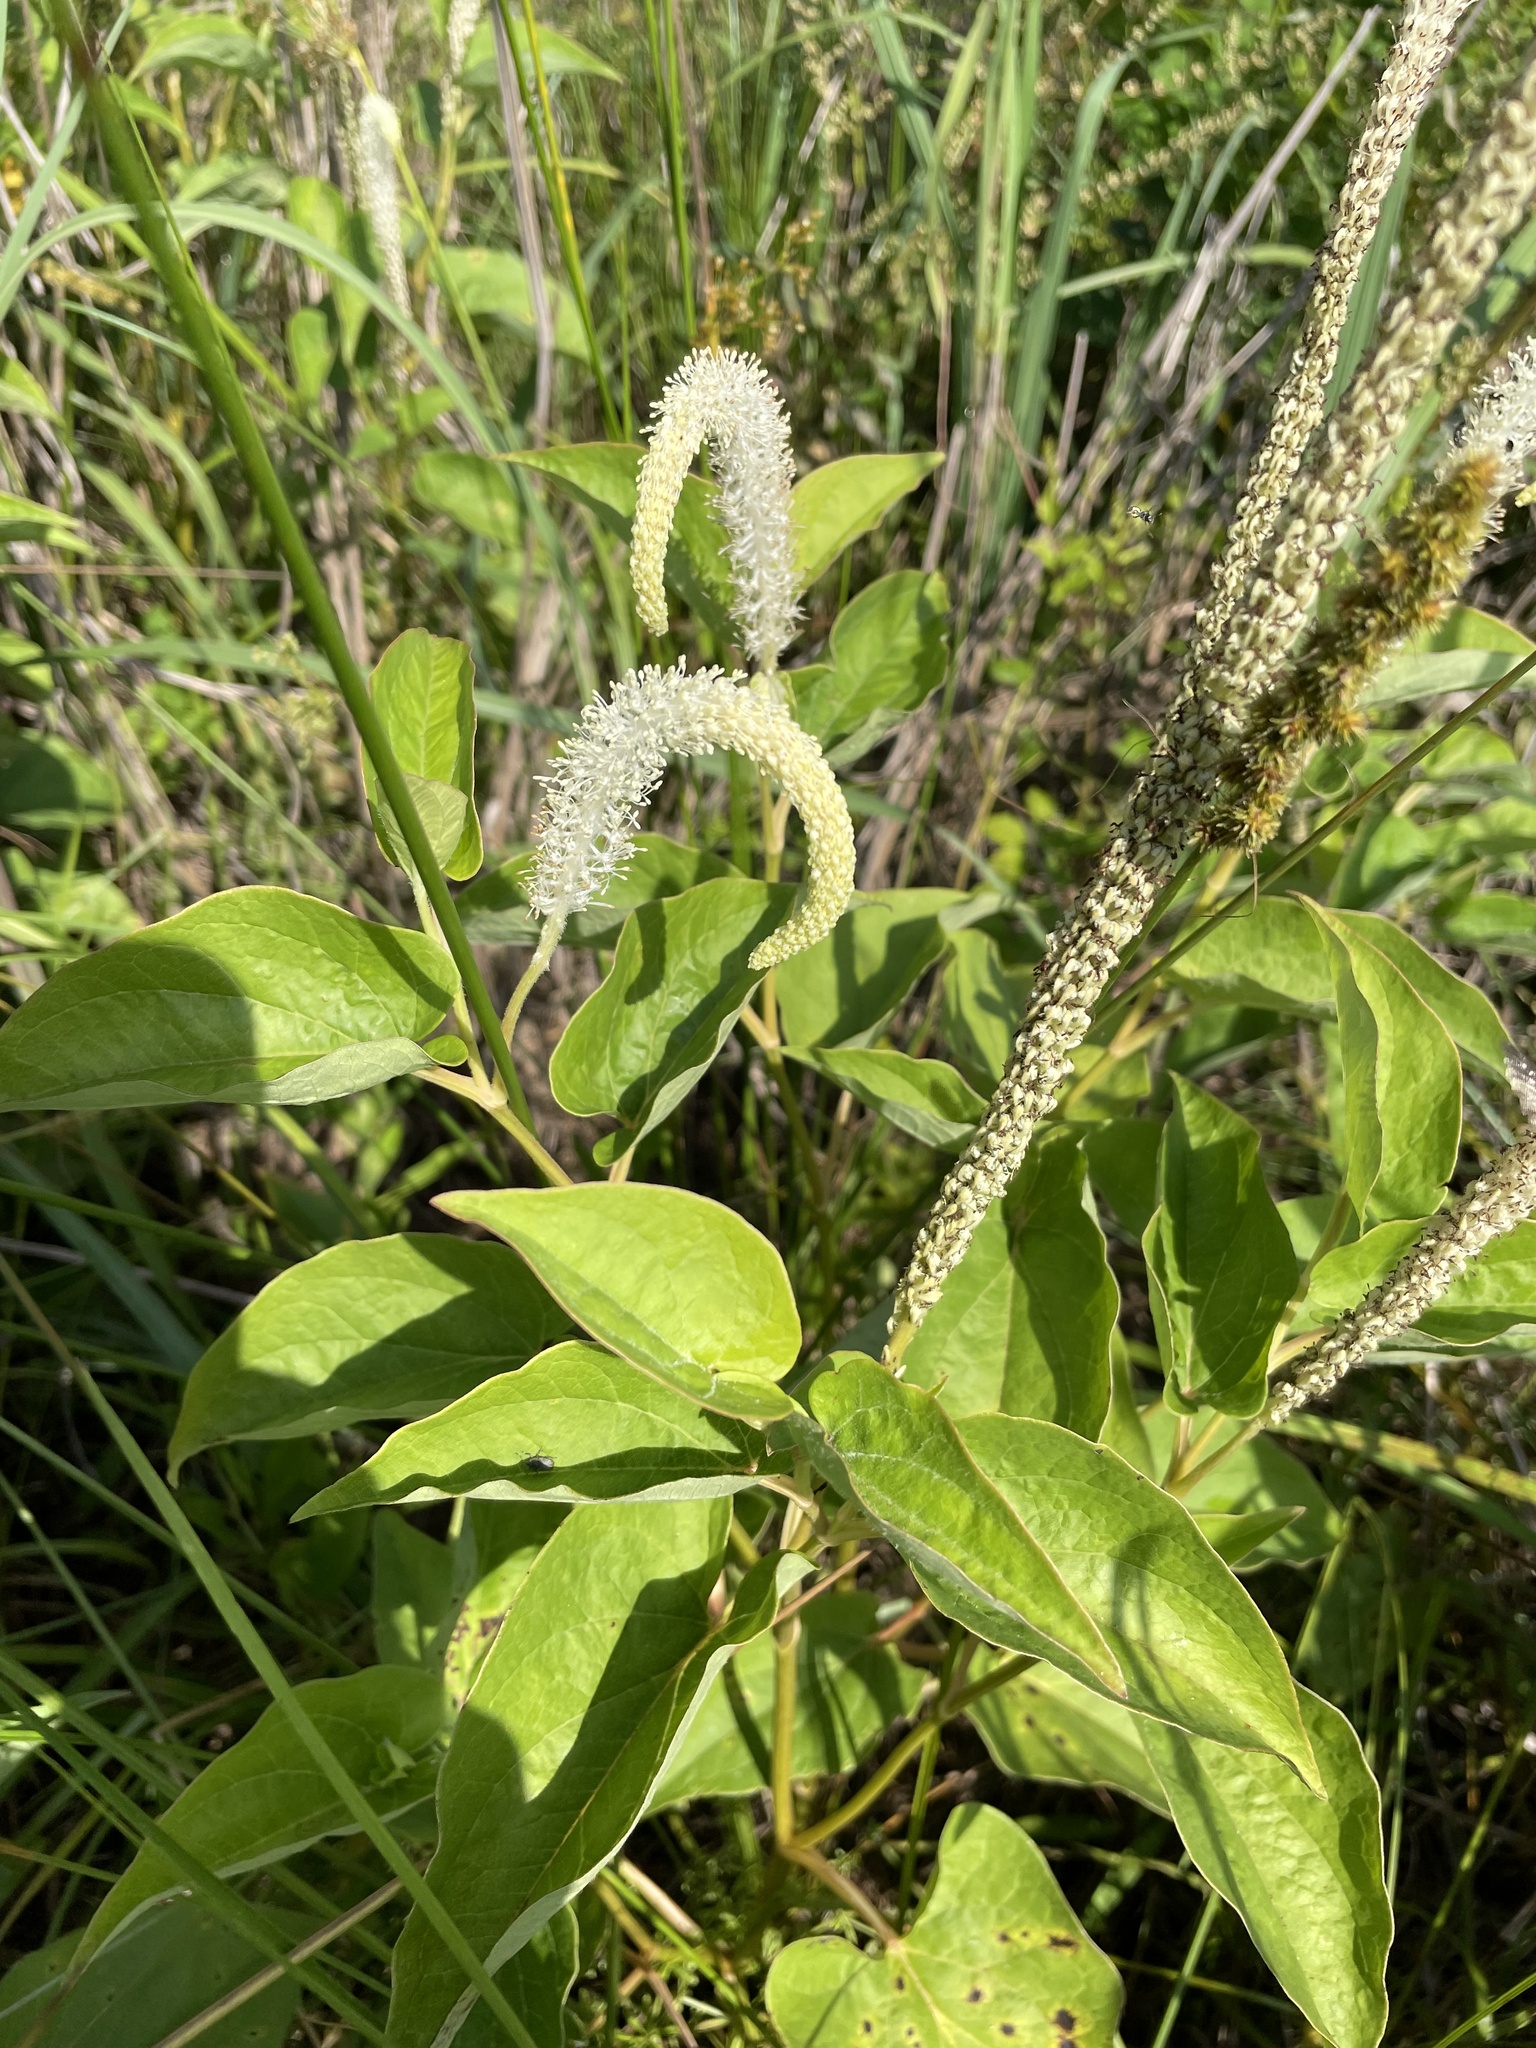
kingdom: Plantae
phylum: Tracheophyta
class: Magnoliopsida
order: Piperales
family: Saururaceae
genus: Saururus
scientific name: Saururus cernuus
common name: Lizard's-tail
